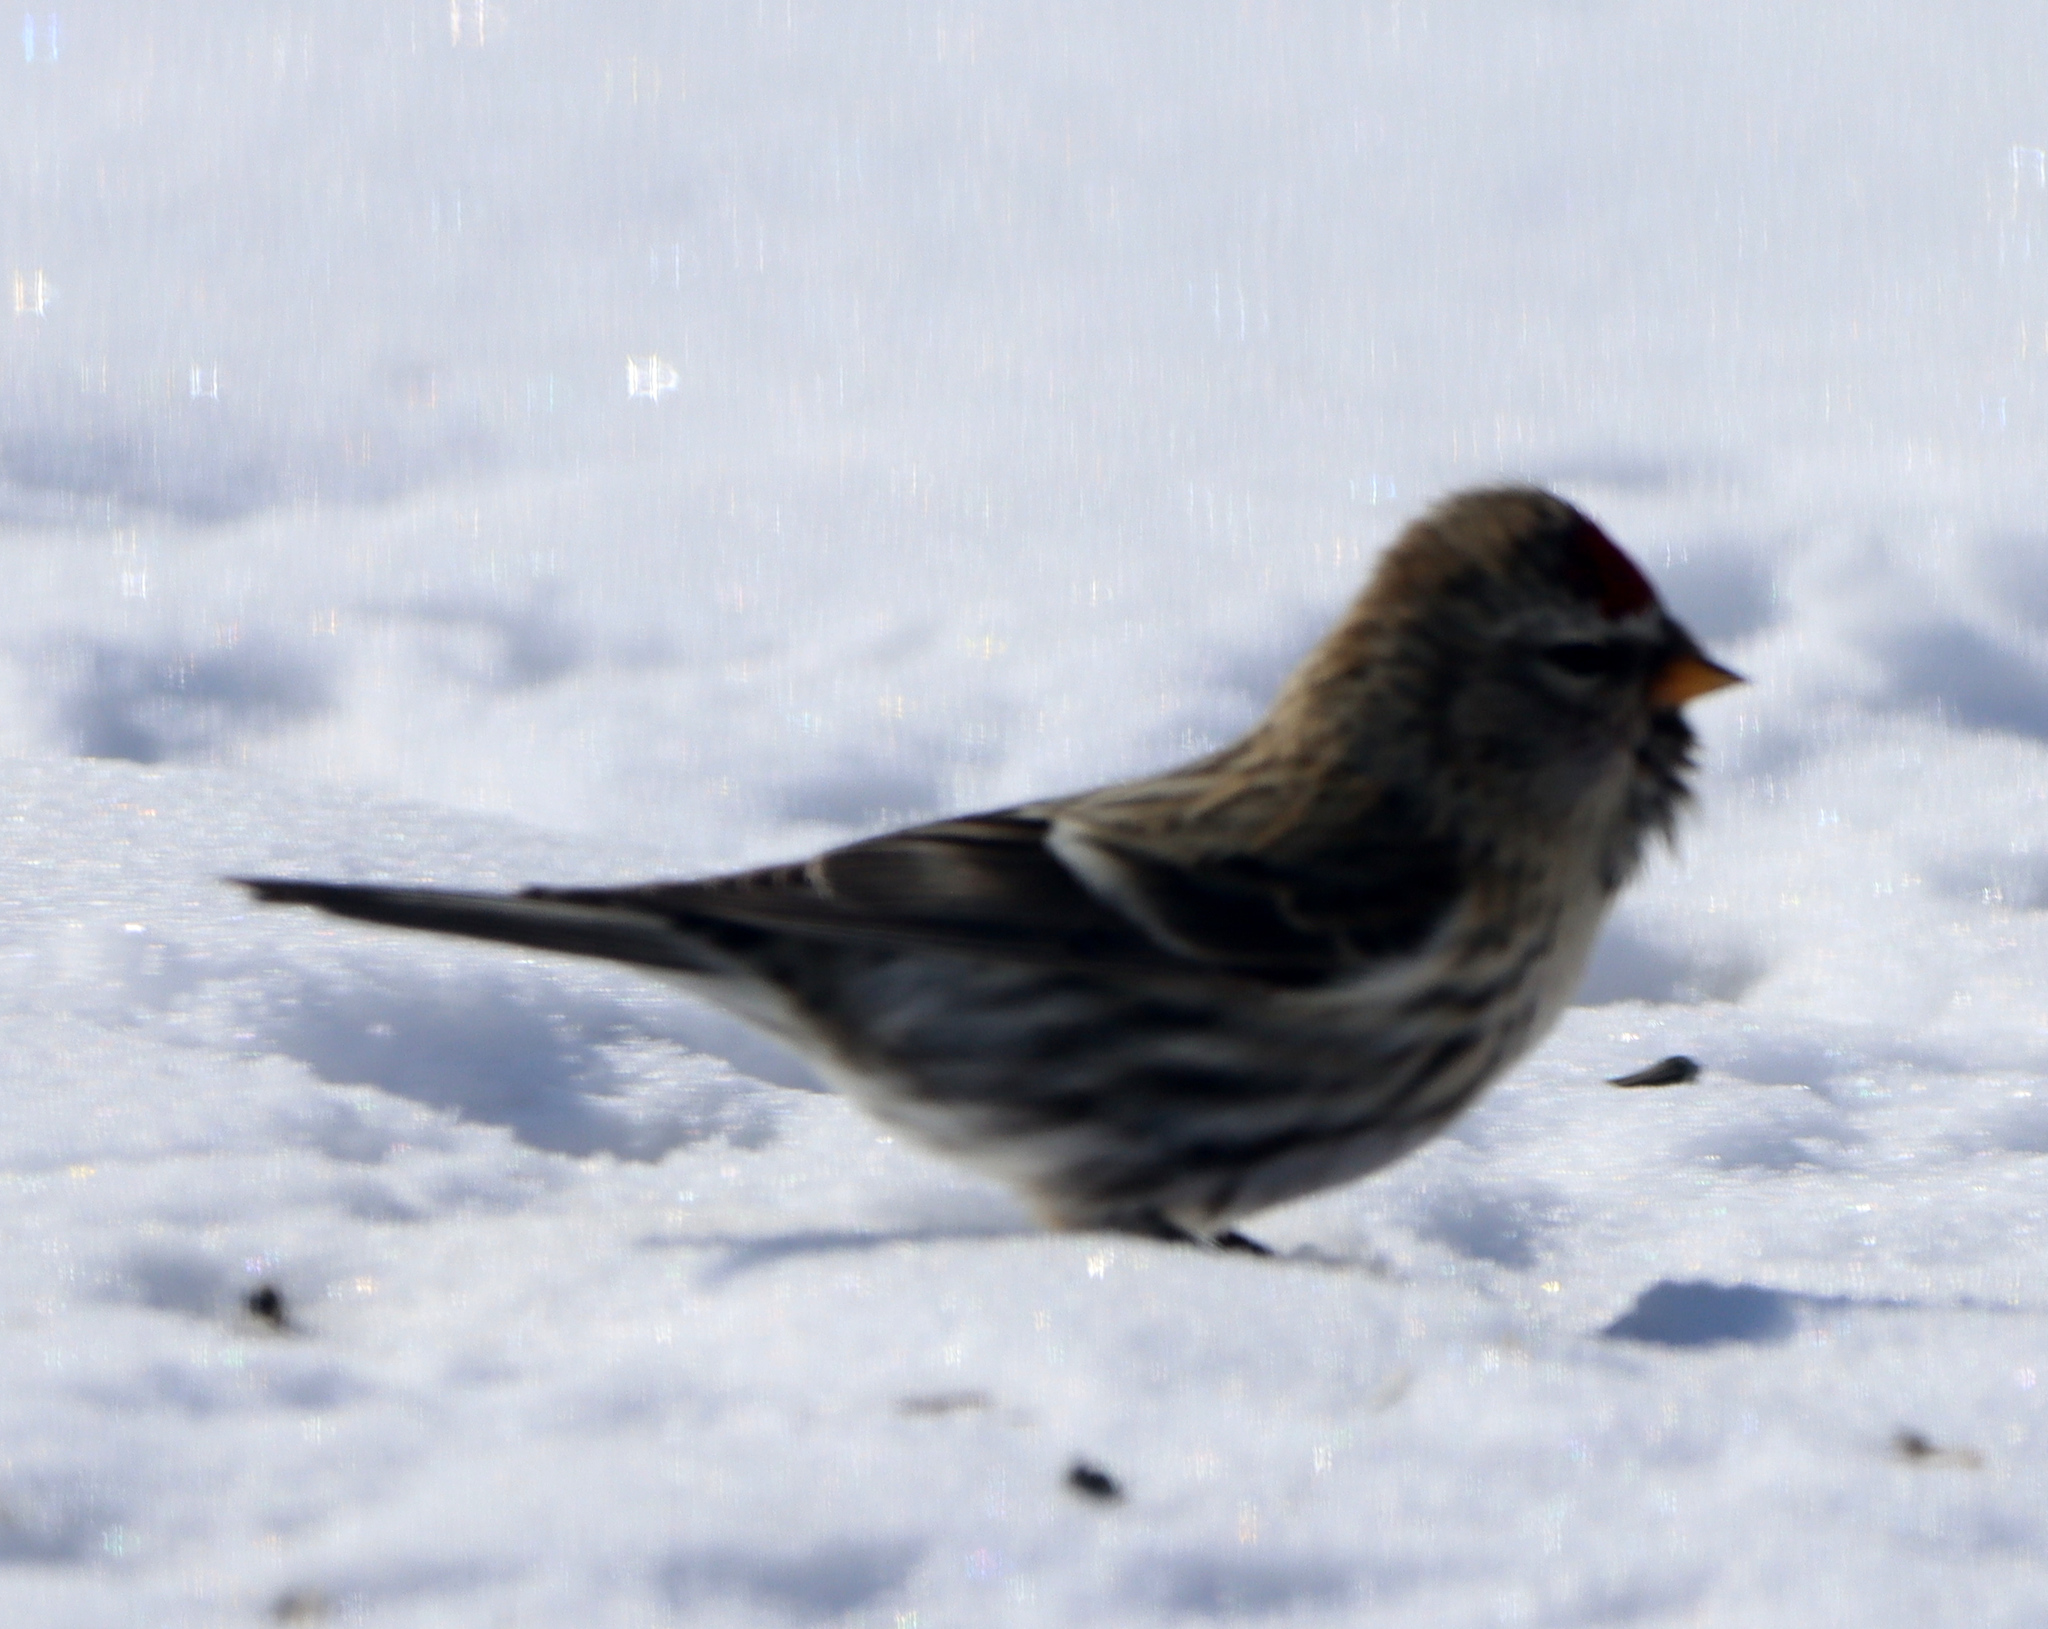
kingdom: Animalia
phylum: Chordata
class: Aves
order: Passeriformes
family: Fringillidae
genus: Acanthis
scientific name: Acanthis flammea
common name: Common redpoll
